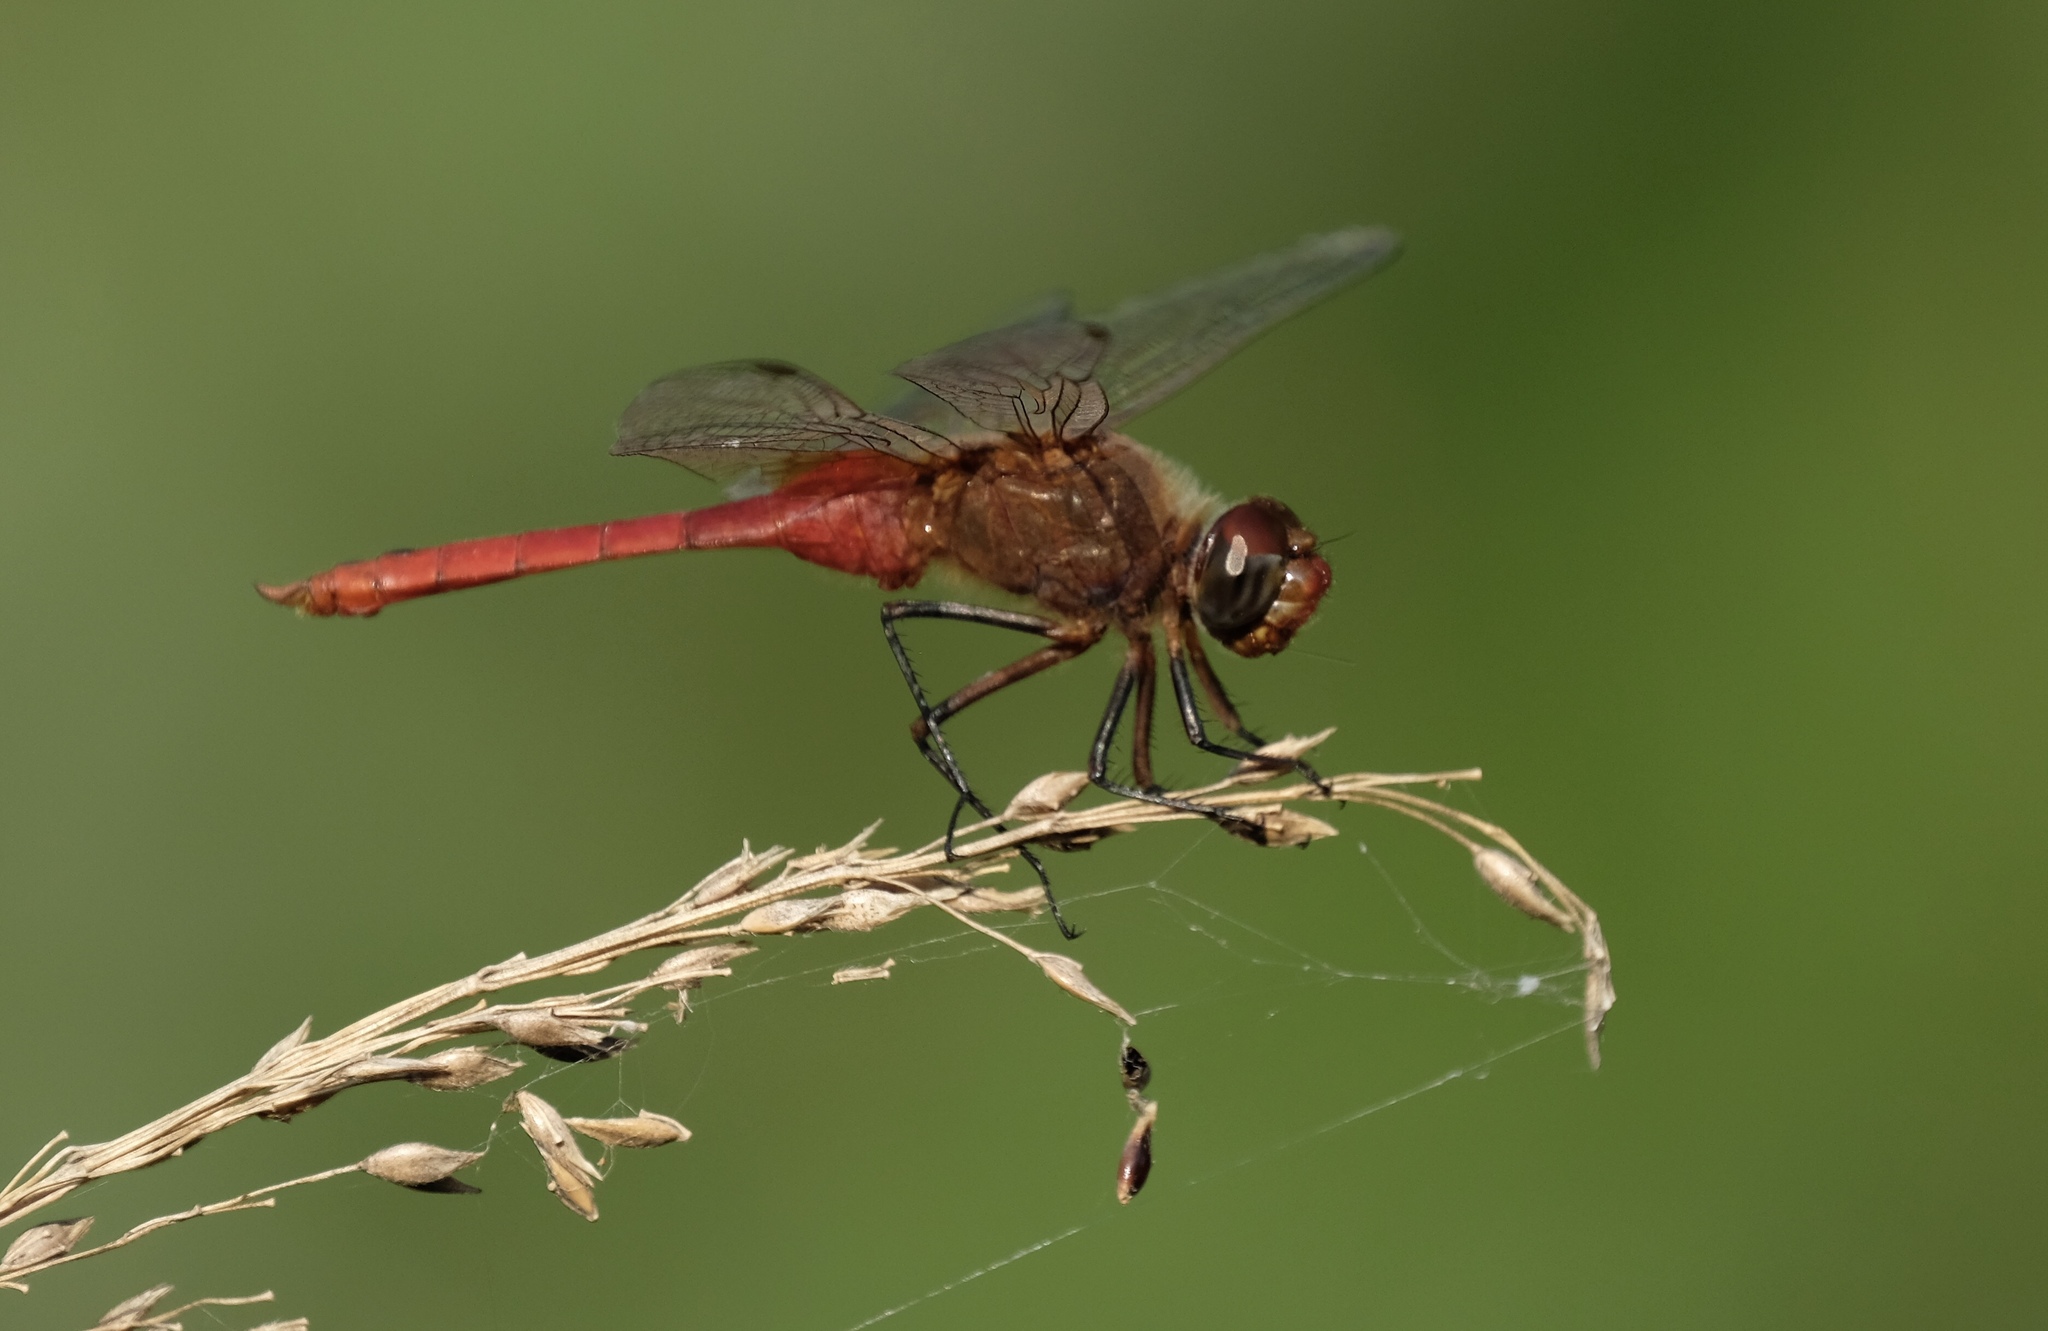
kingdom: Animalia
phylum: Arthropoda
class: Insecta
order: Odonata
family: Libellulidae
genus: Brachymesia
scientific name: Brachymesia furcata
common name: Red-taled pennant
